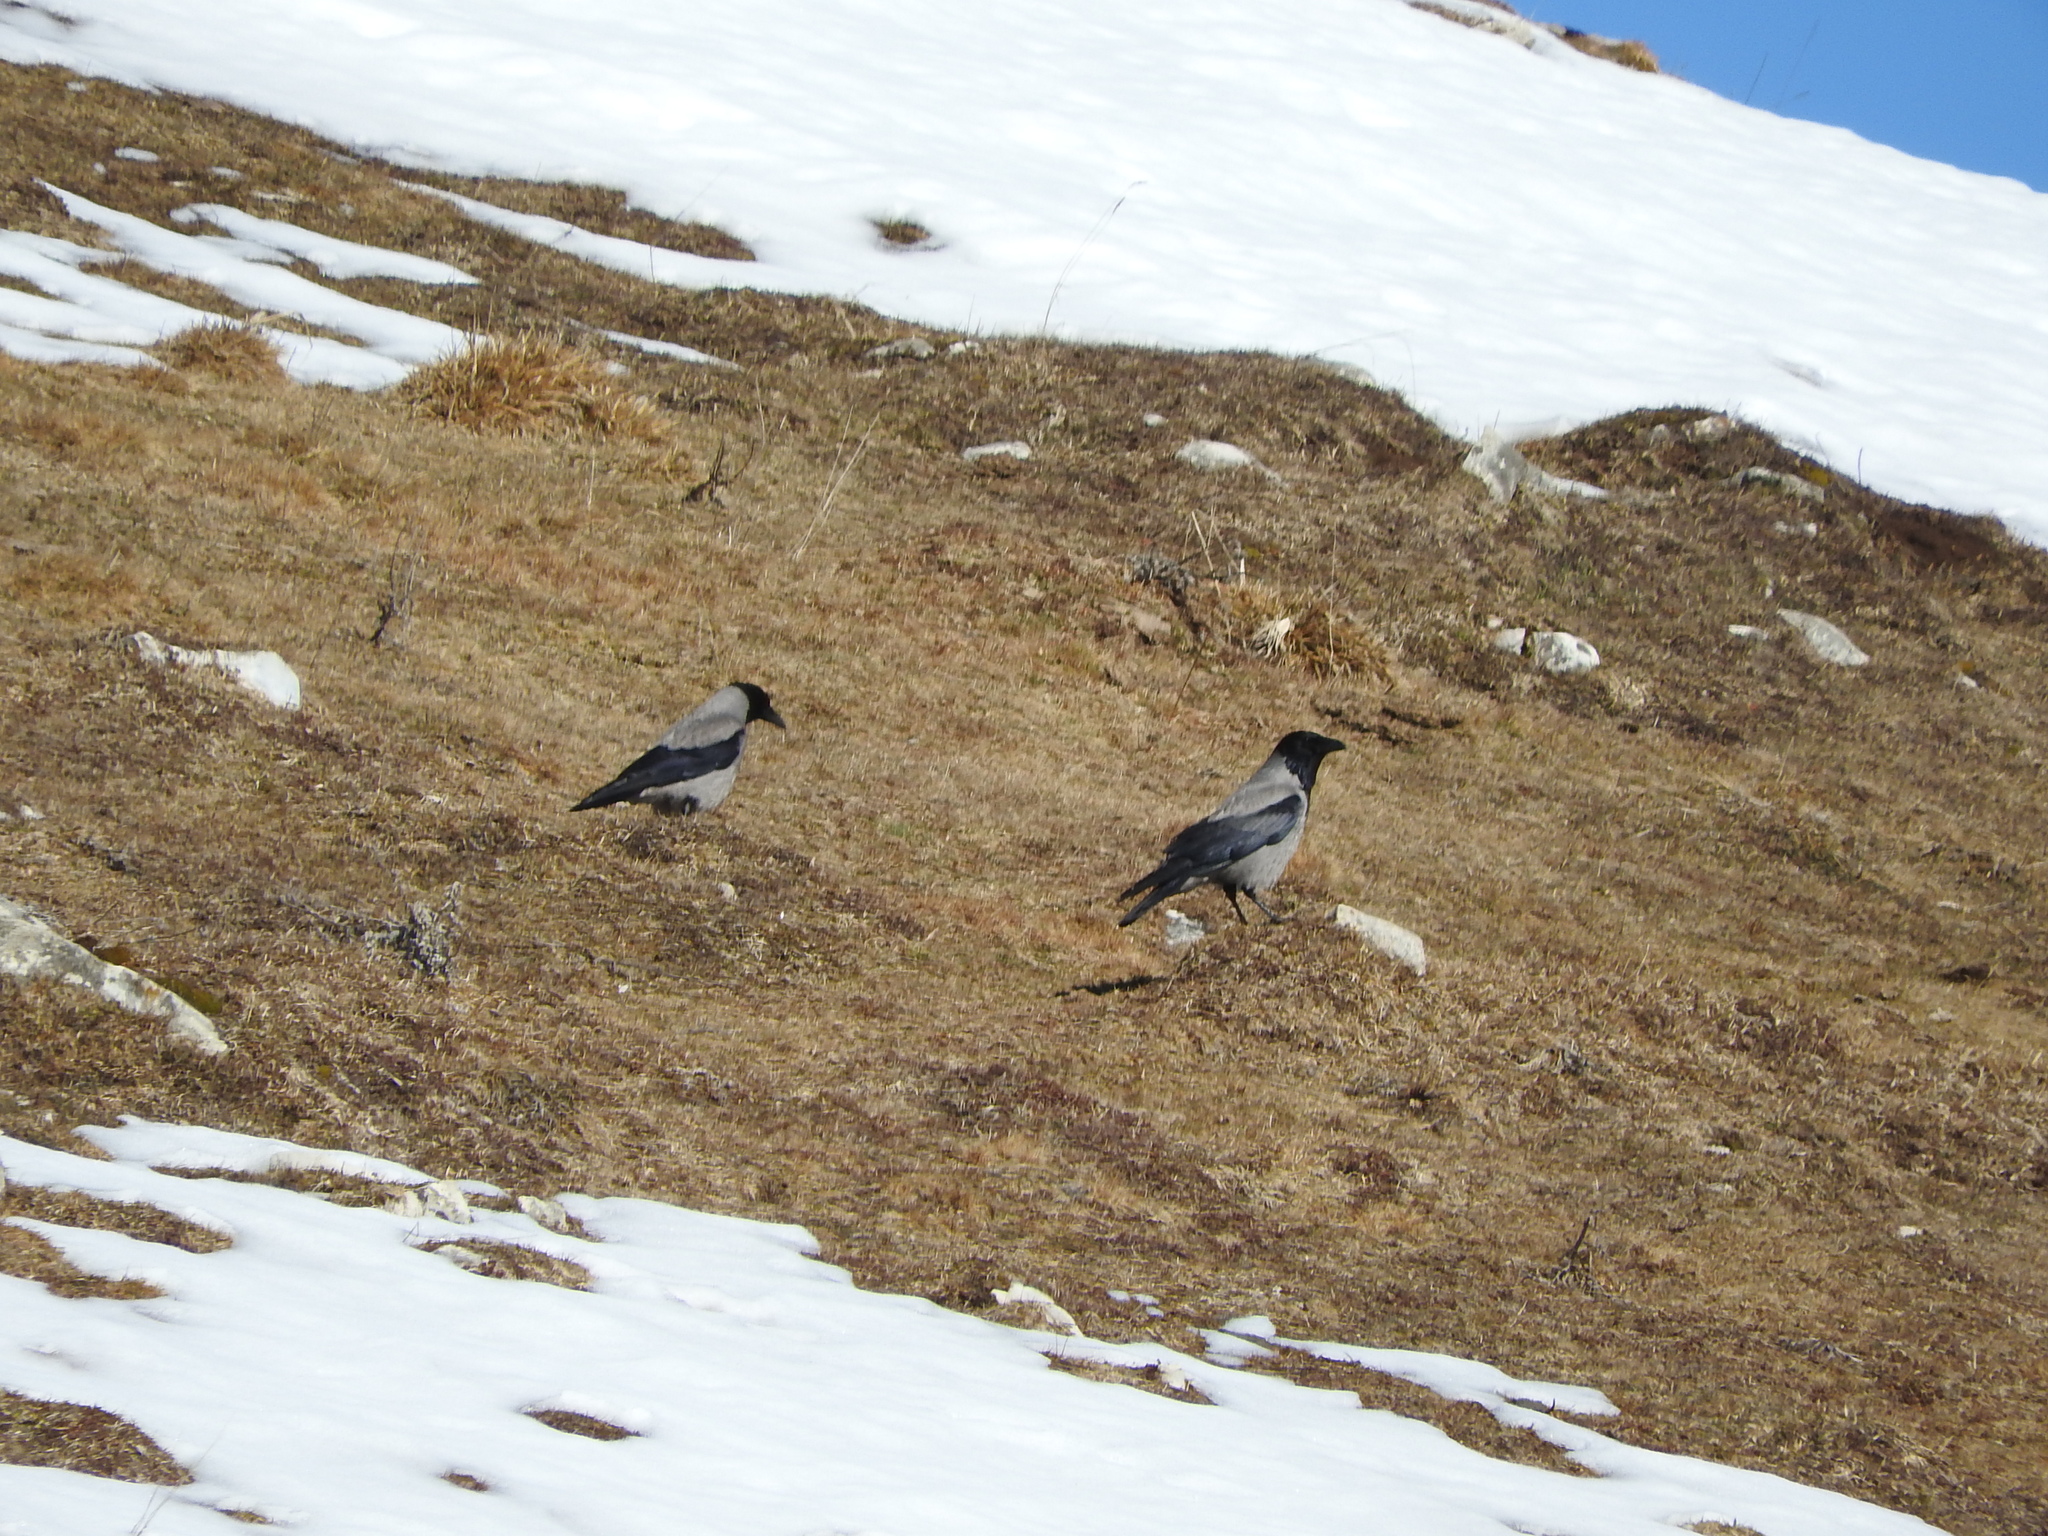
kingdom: Animalia
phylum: Chordata
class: Aves
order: Passeriformes
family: Corvidae
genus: Corvus
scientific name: Corvus cornix
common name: Hooded crow
